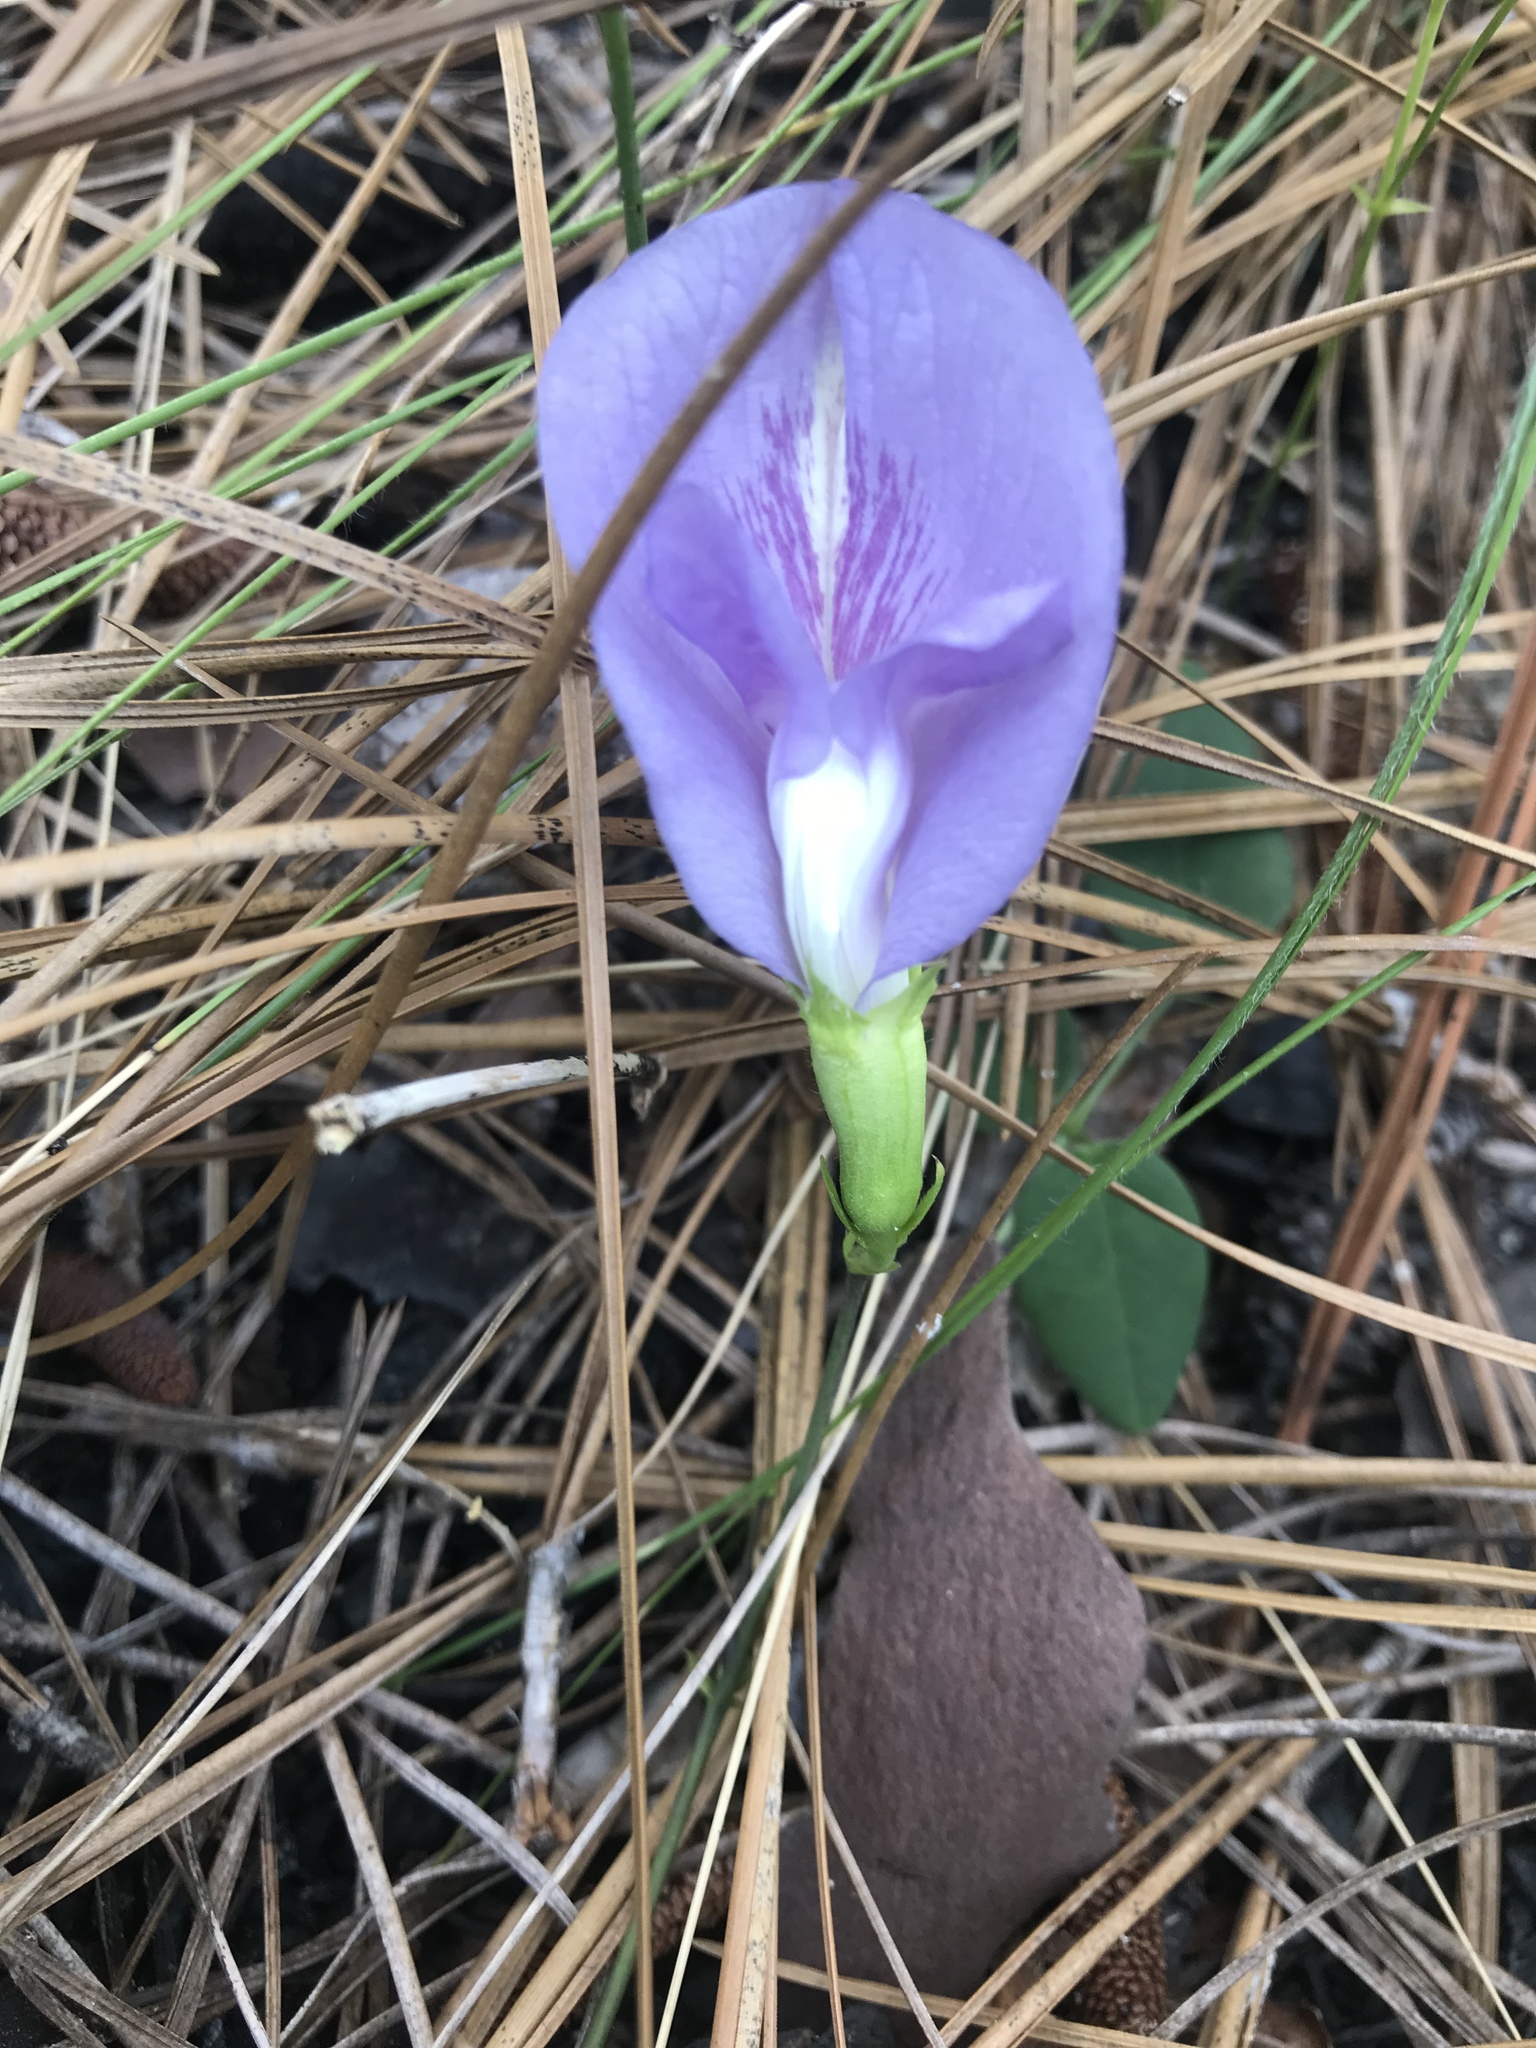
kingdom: Plantae
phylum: Tracheophyta
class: Magnoliopsida
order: Fabales
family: Fabaceae
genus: Clitoria
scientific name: Clitoria mariana
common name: Butterfly-pea
